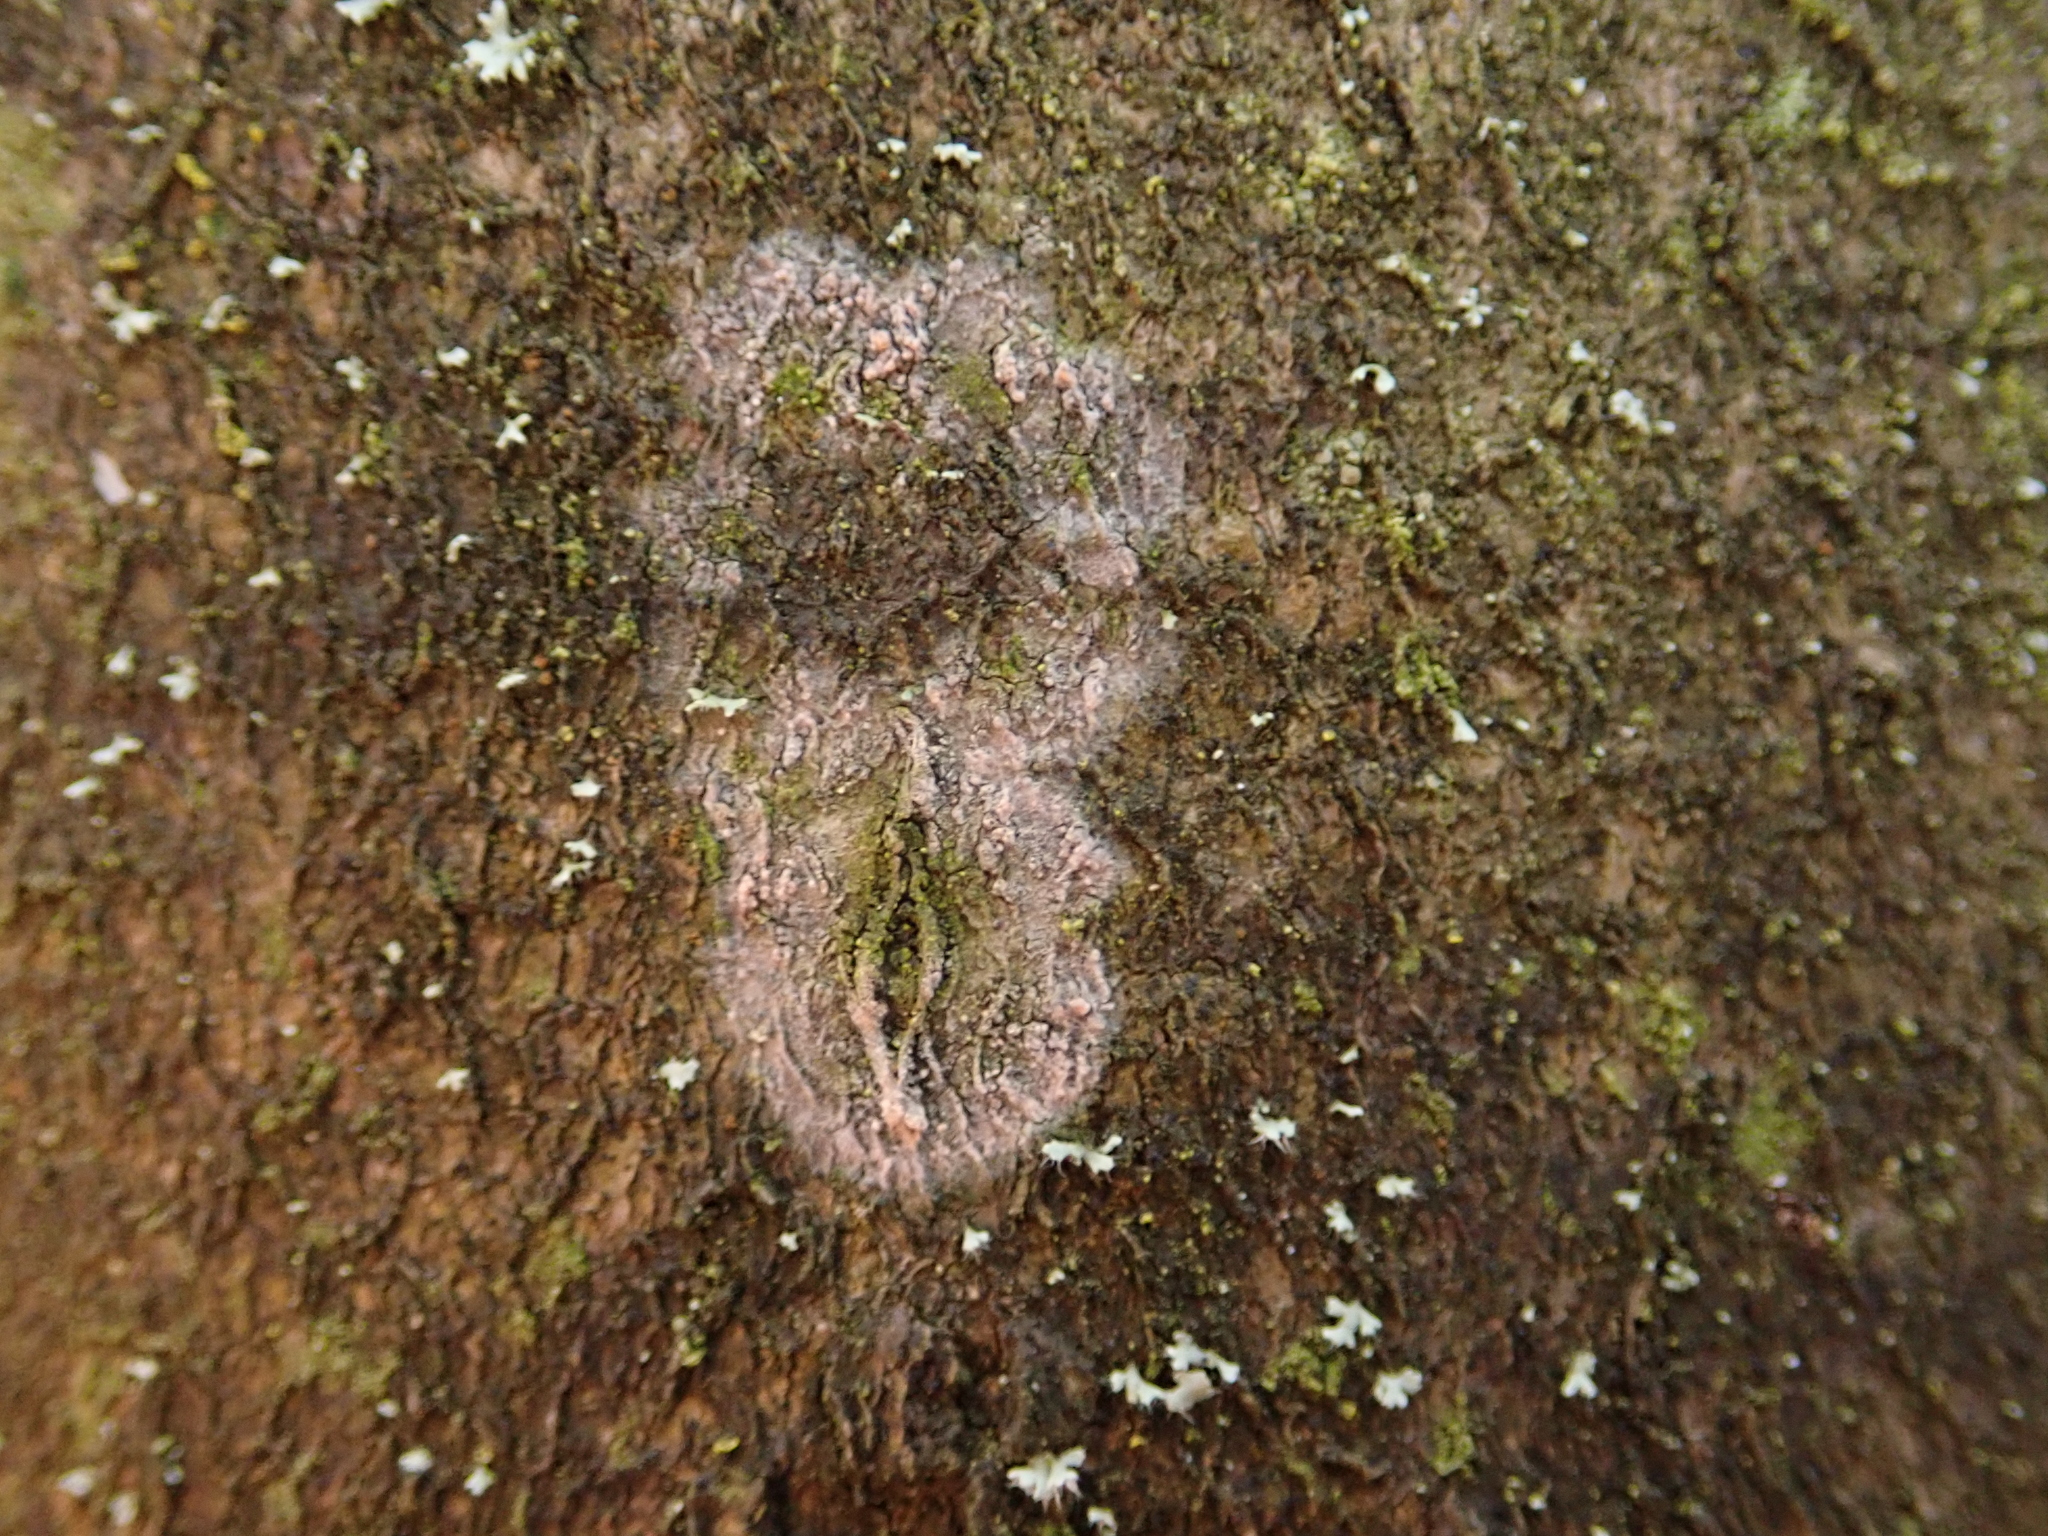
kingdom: Fungi
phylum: Basidiomycota
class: Agaricomycetes
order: Atheliales
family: Atheliaceae
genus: Athelia
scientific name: Athelia arachnoidea
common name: Candelabra duster
